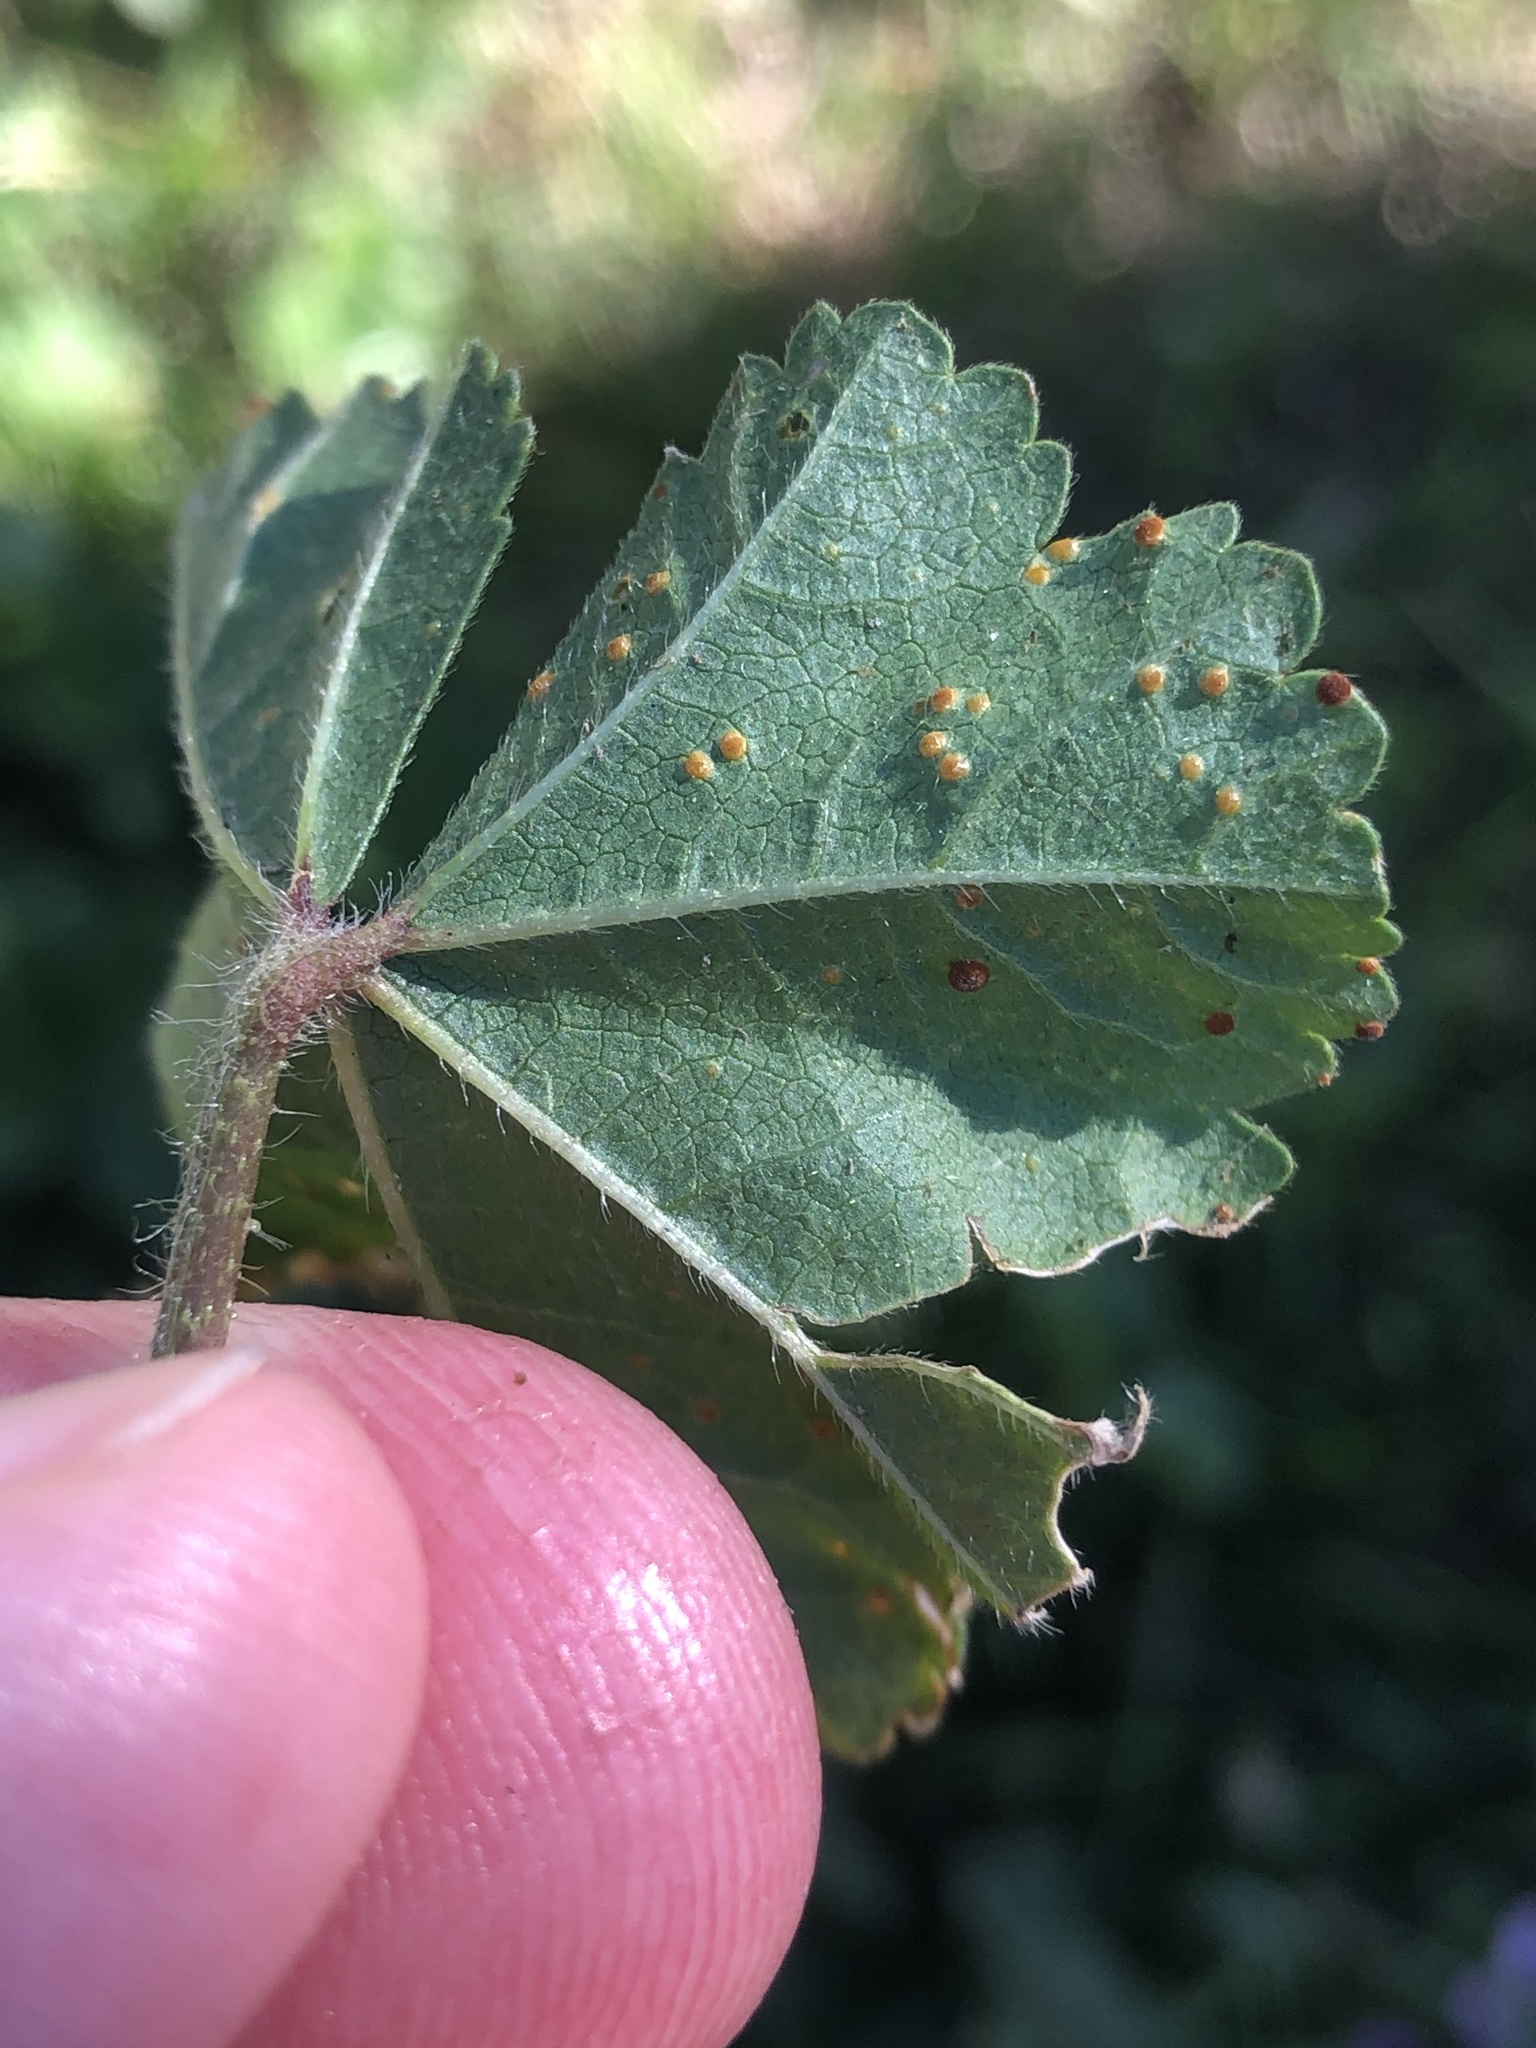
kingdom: Fungi
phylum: Basidiomycota
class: Pucciniomycetes
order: Pucciniales
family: Pucciniaceae
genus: Puccinia
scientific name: Puccinia malvacearum
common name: Hollyhock rust
